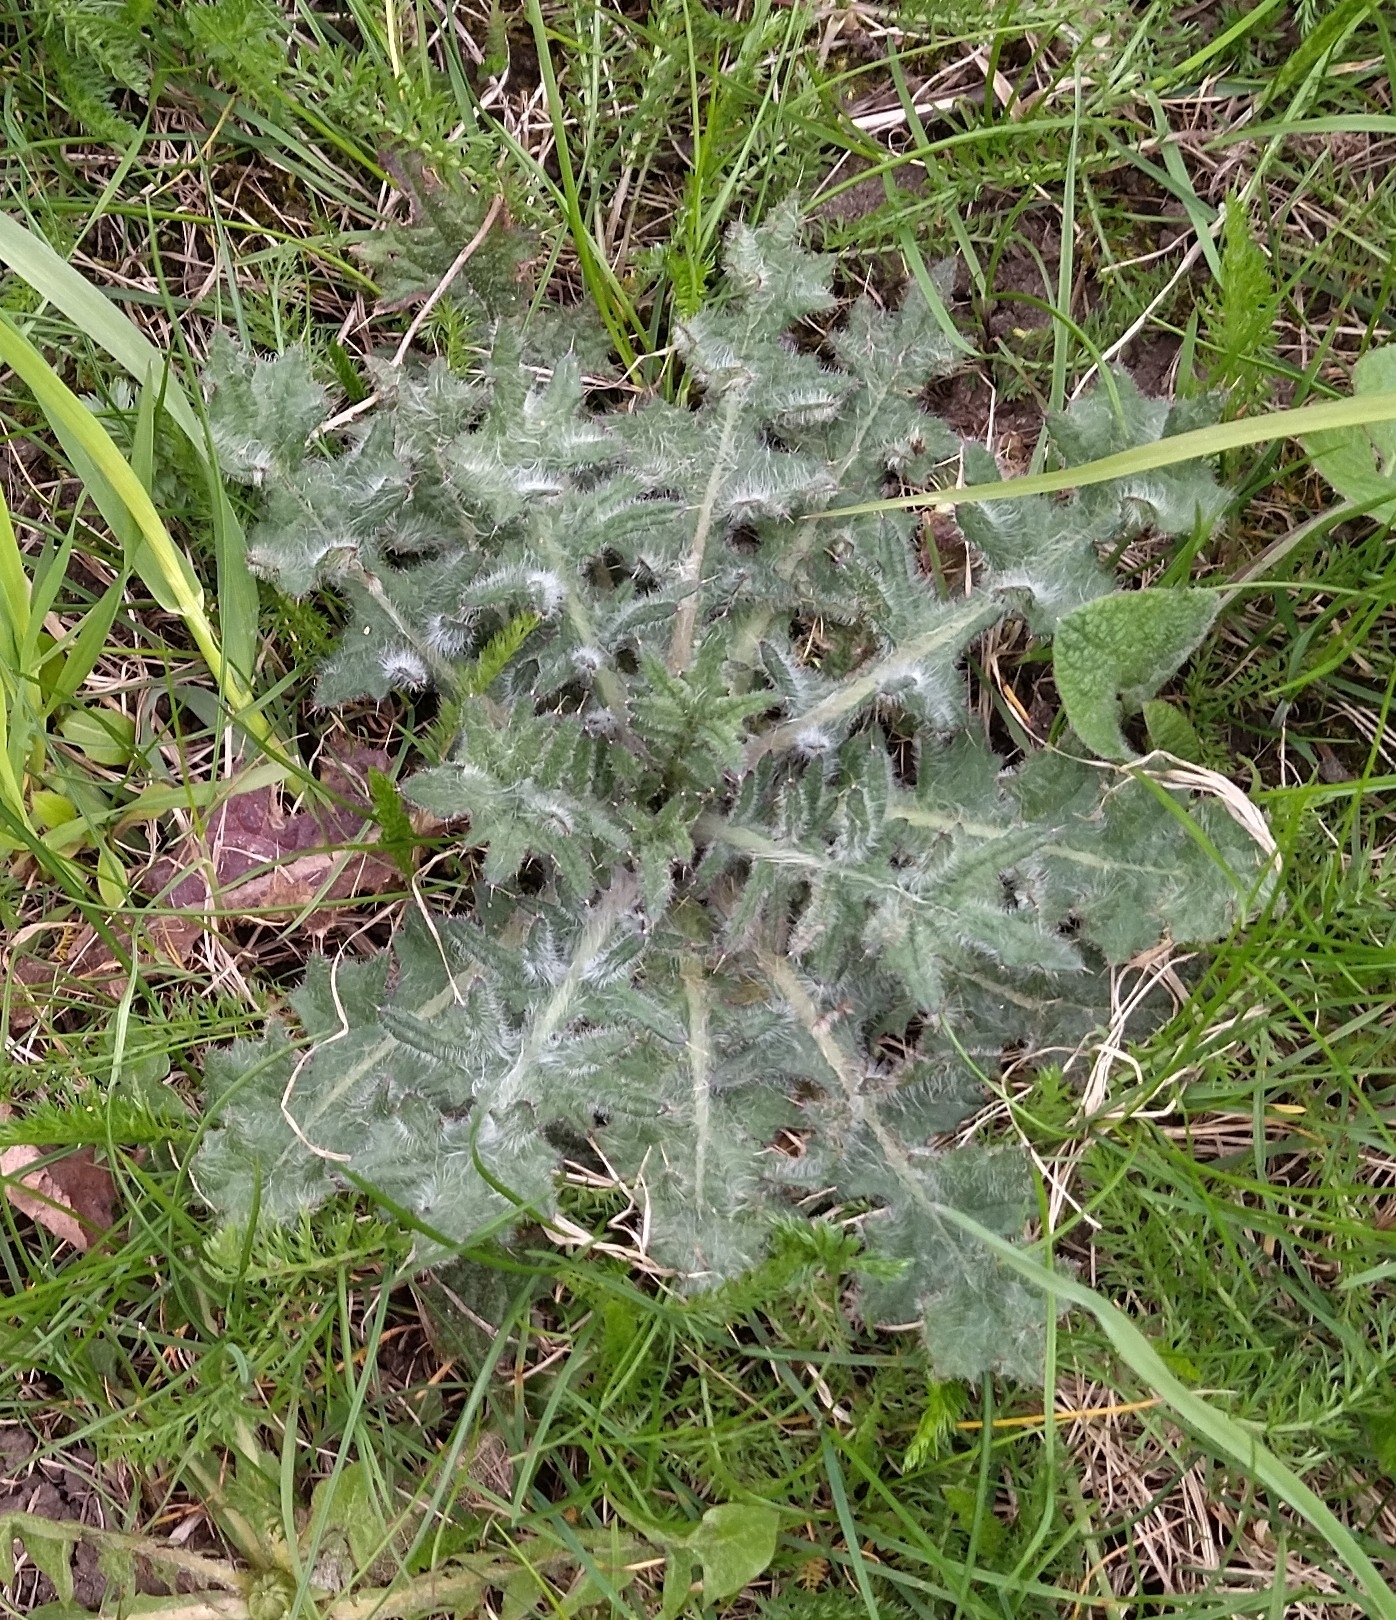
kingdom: Plantae
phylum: Tracheophyta
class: Magnoliopsida
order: Asterales
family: Asteraceae
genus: Cirsium
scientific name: Cirsium vulgare
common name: Bull thistle
